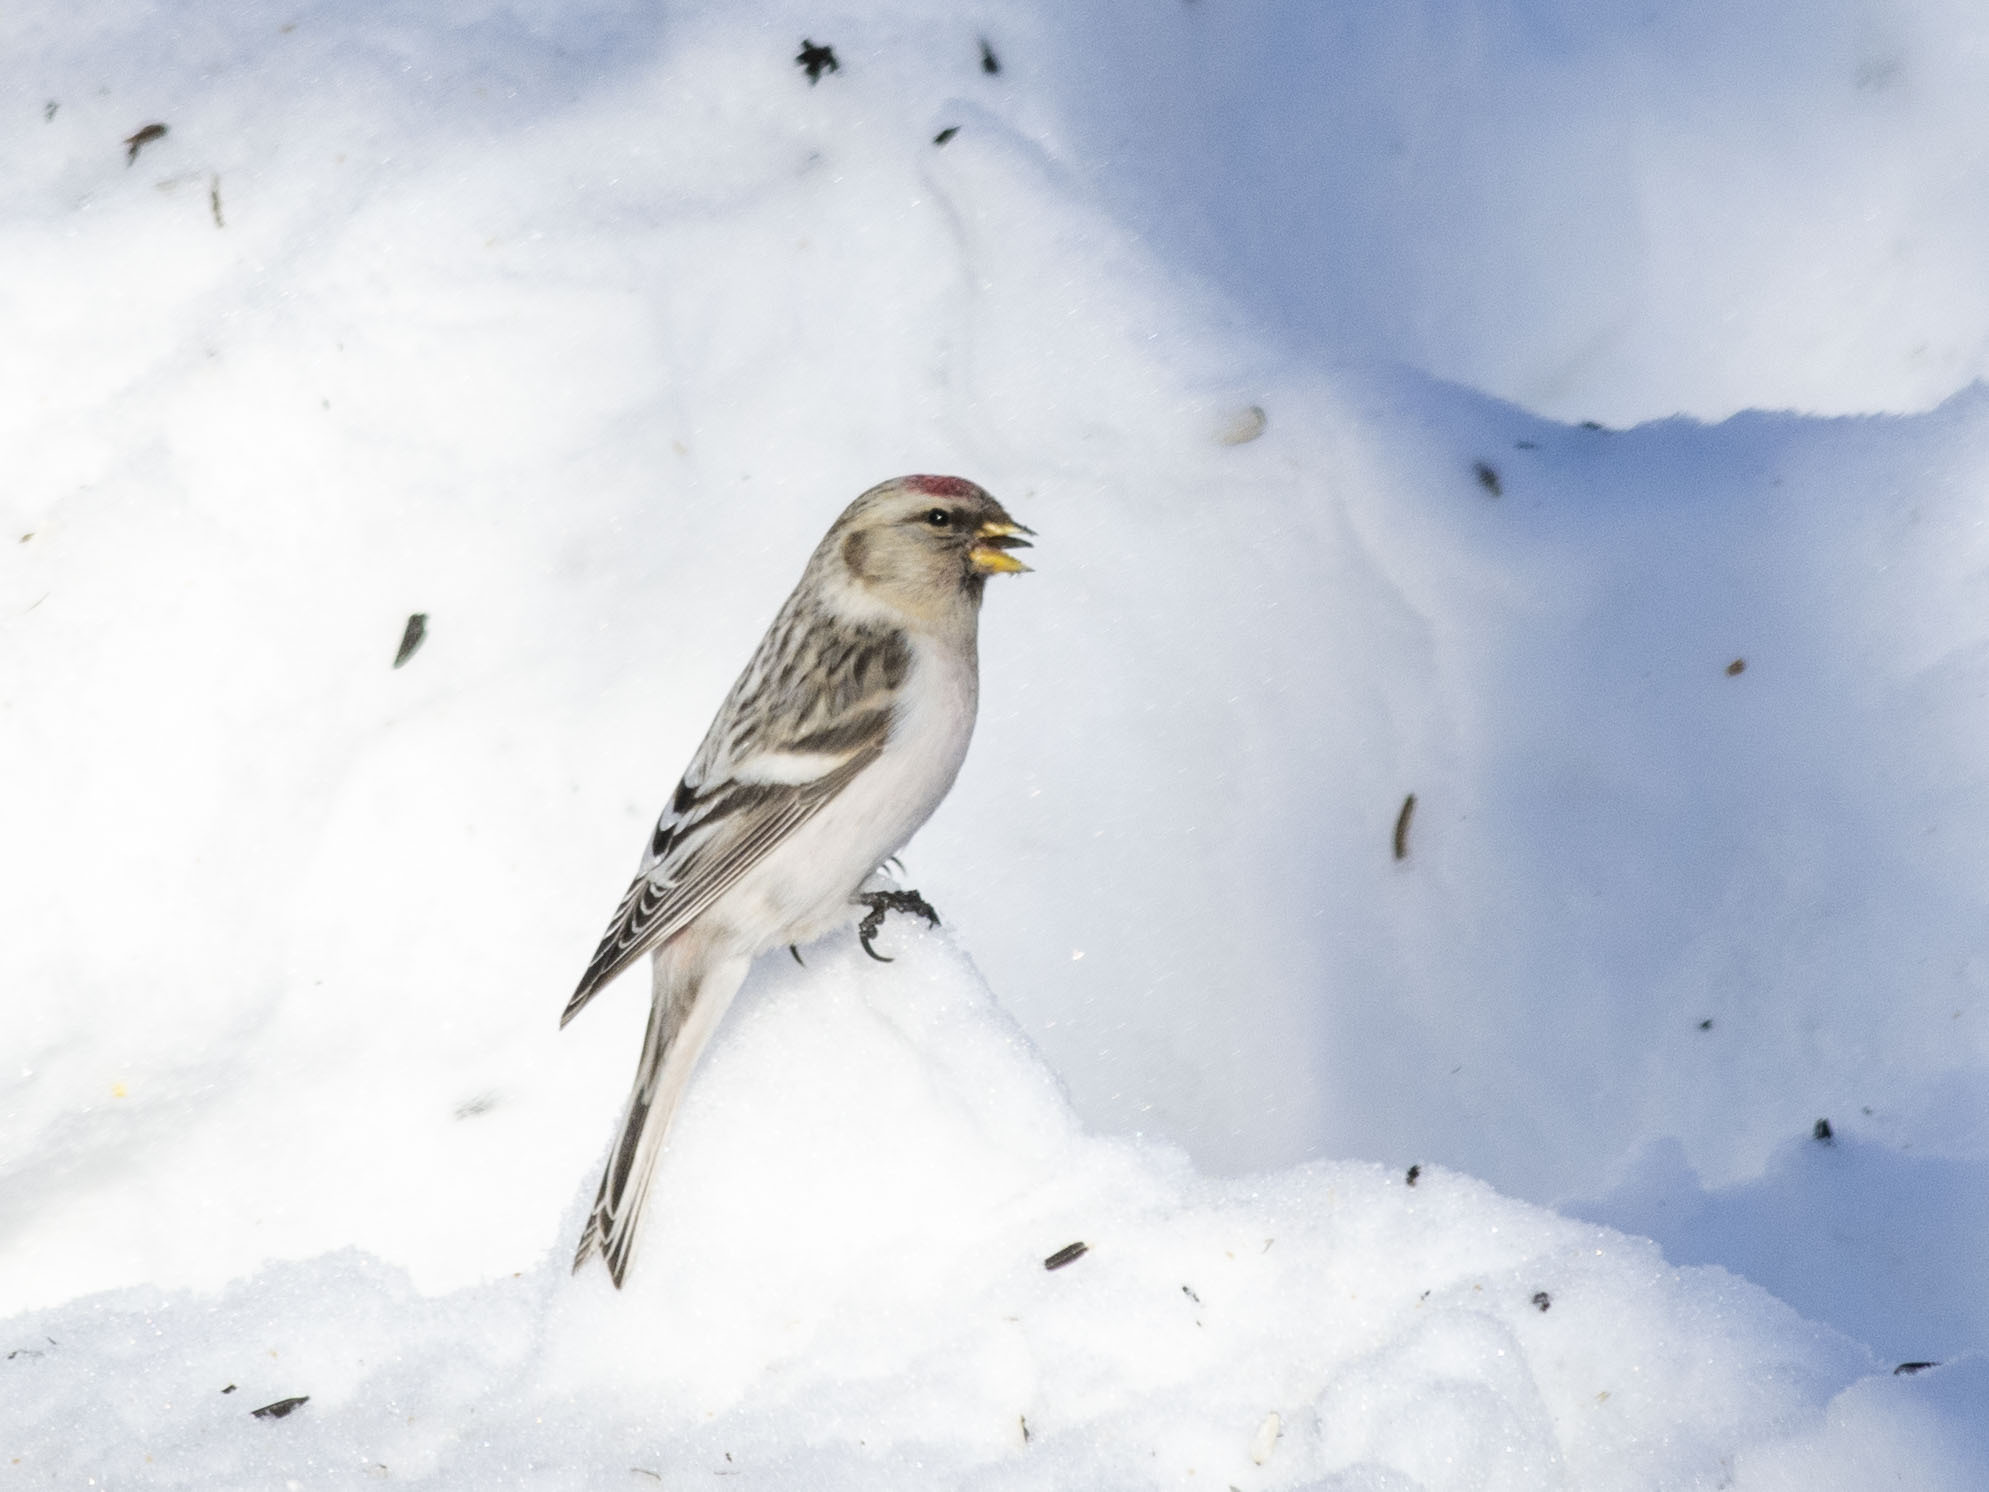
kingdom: Animalia
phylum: Chordata
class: Aves
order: Passeriformes
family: Fringillidae
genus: Acanthis
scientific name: Acanthis hornemanni
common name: Arctic redpoll
